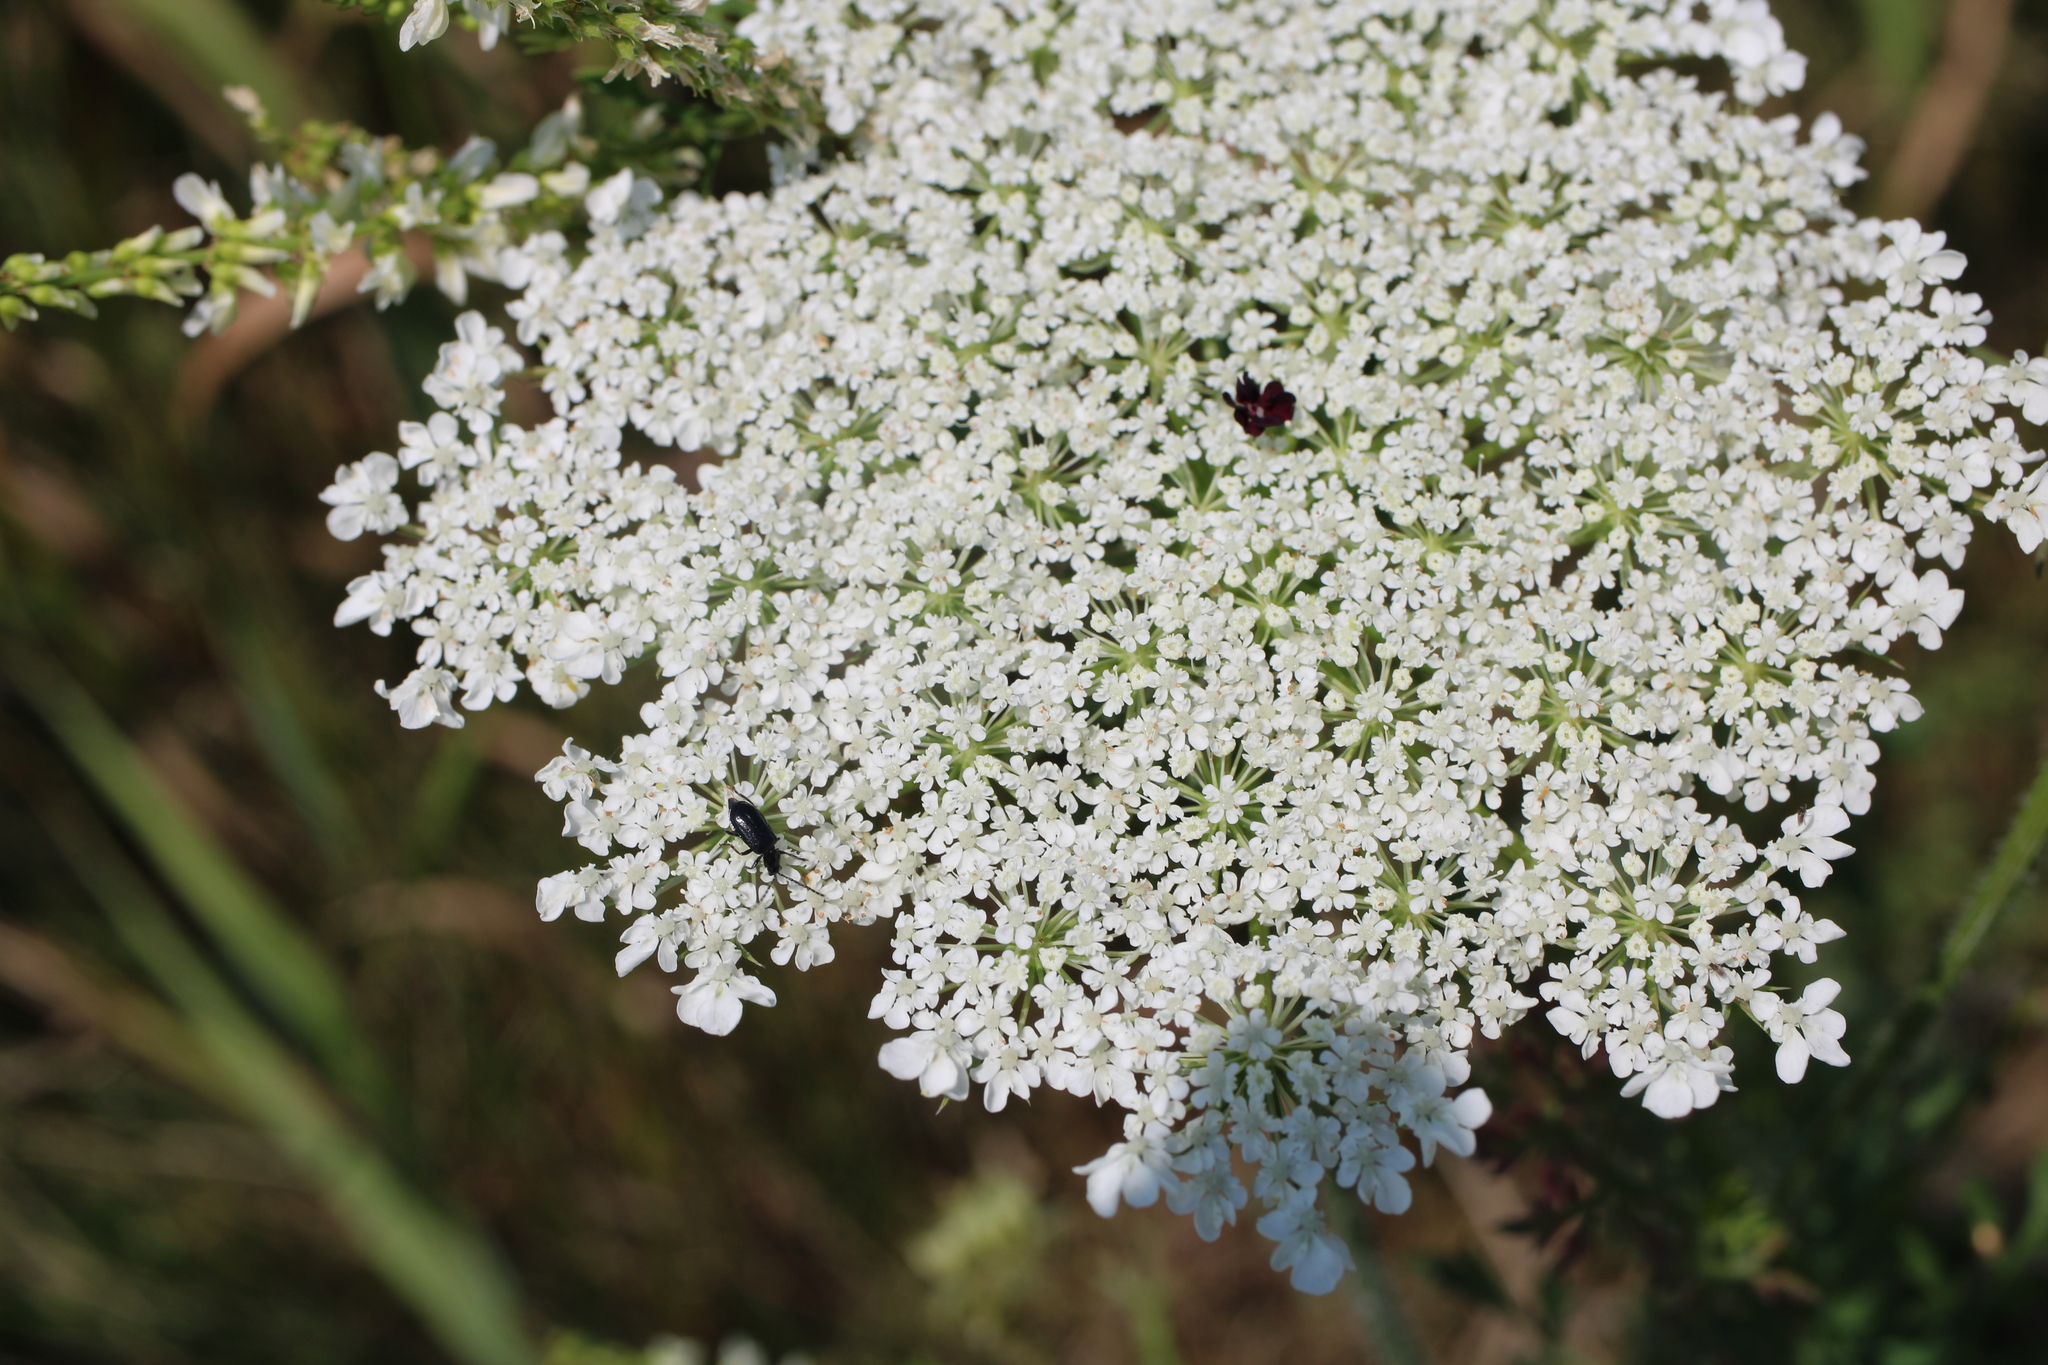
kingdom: Animalia
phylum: Arthropoda
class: Insecta
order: Coleoptera
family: Chrysomelidae
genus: Diabrotica
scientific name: Diabrotica cristata
